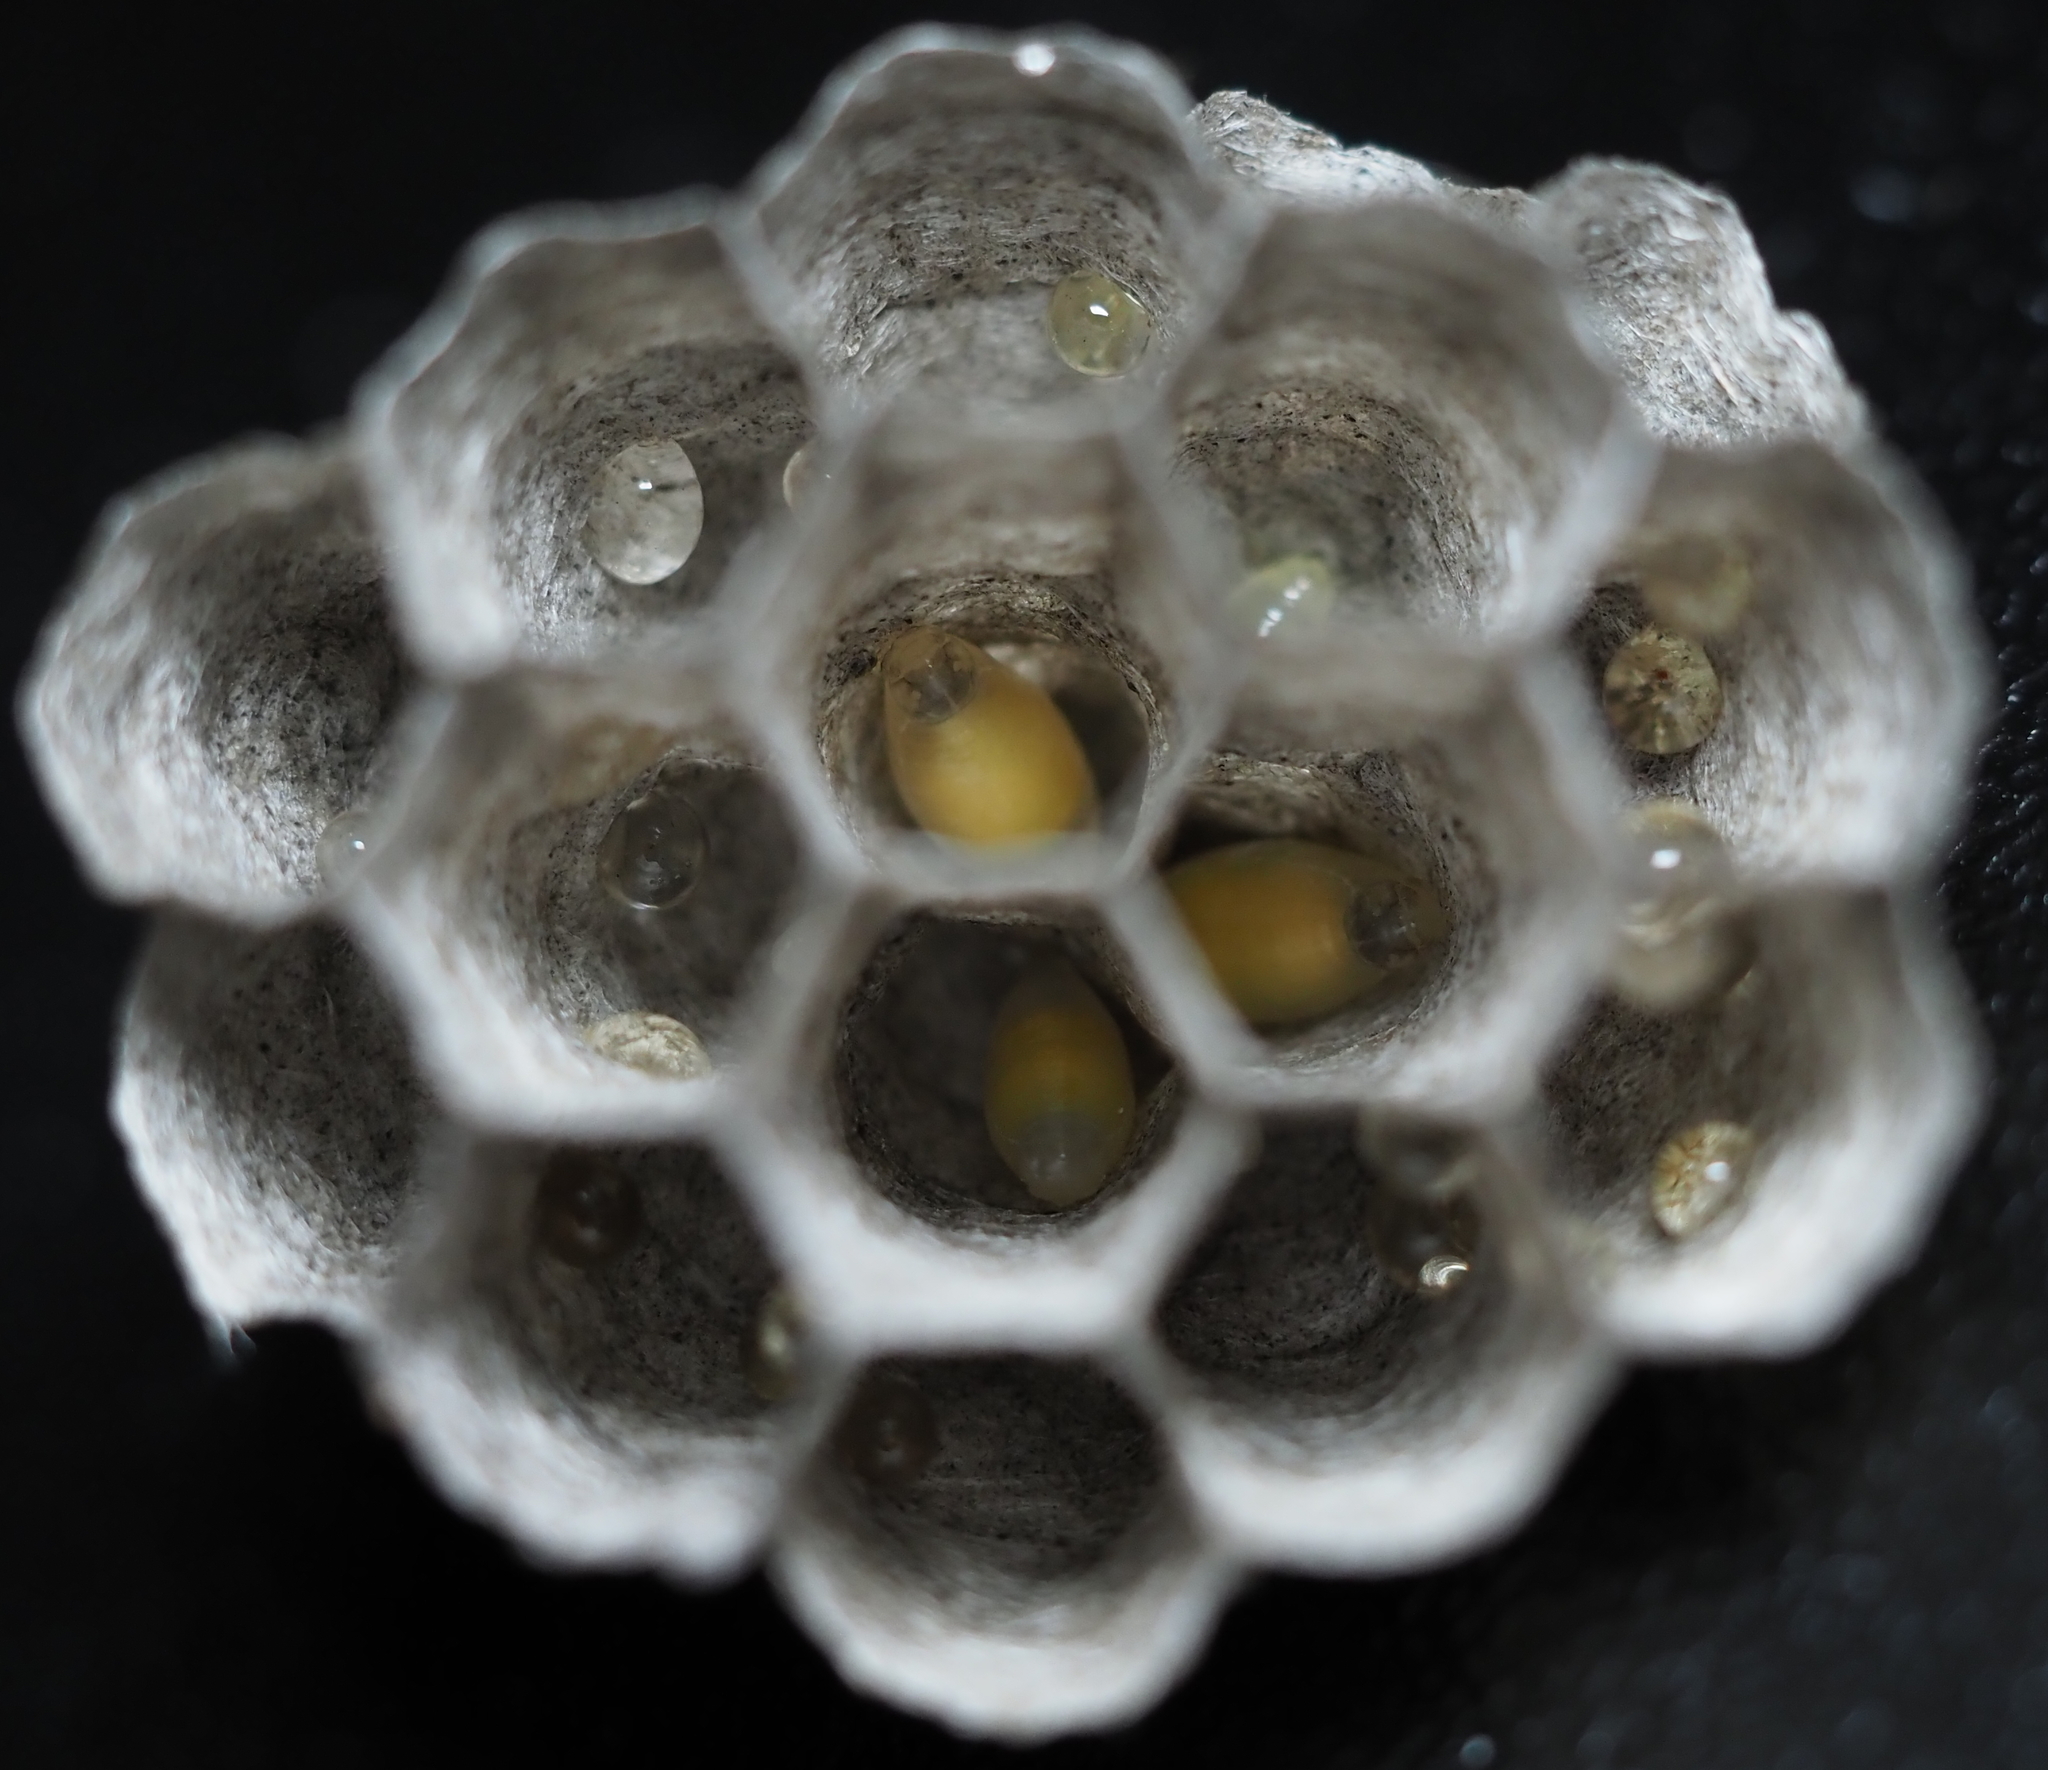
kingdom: Animalia
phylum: Arthropoda
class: Insecta
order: Hymenoptera
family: Eumenidae
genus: Polistes
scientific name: Polistes metricus
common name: Metric paper wasp
